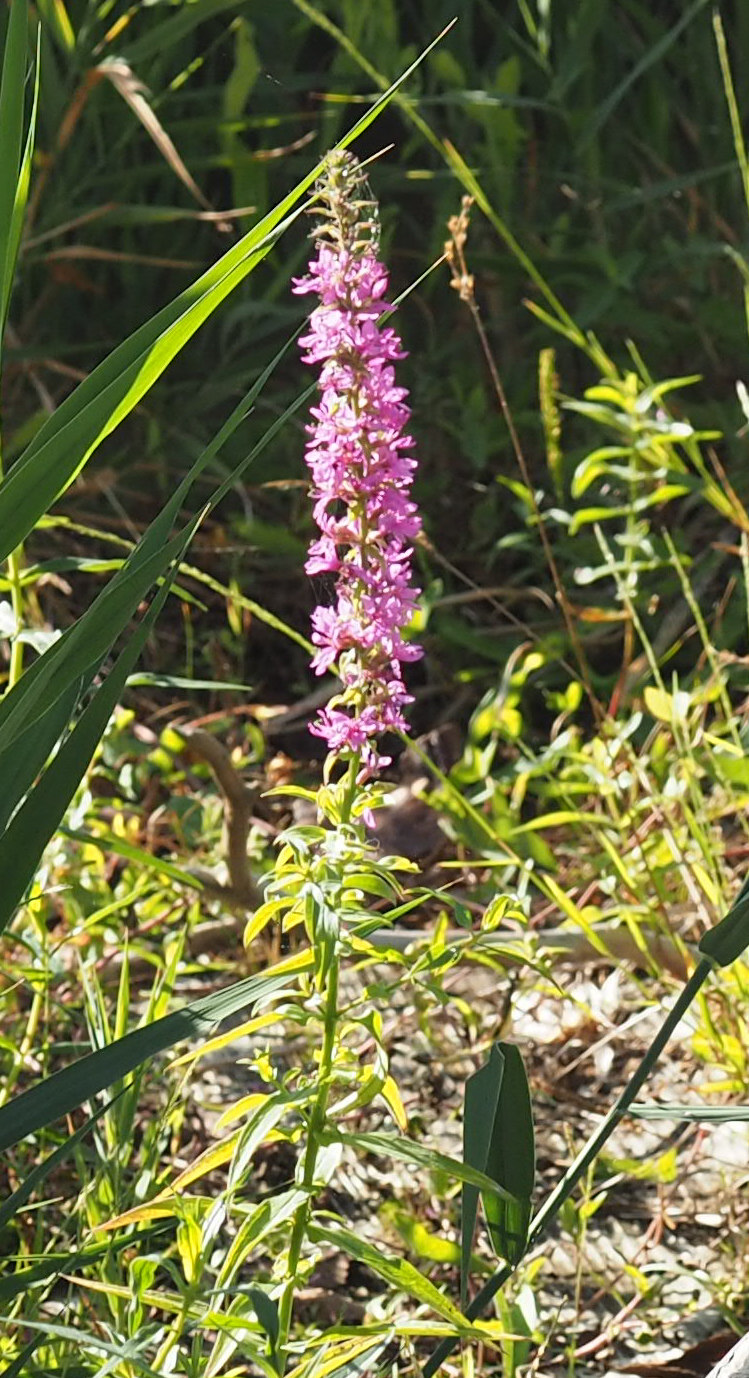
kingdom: Plantae
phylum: Tracheophyta
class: Magnoliopsida
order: Myrtales
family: Lythraceae
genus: Lythrum
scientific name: Lythrum salicaria
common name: Purple loosestrife
